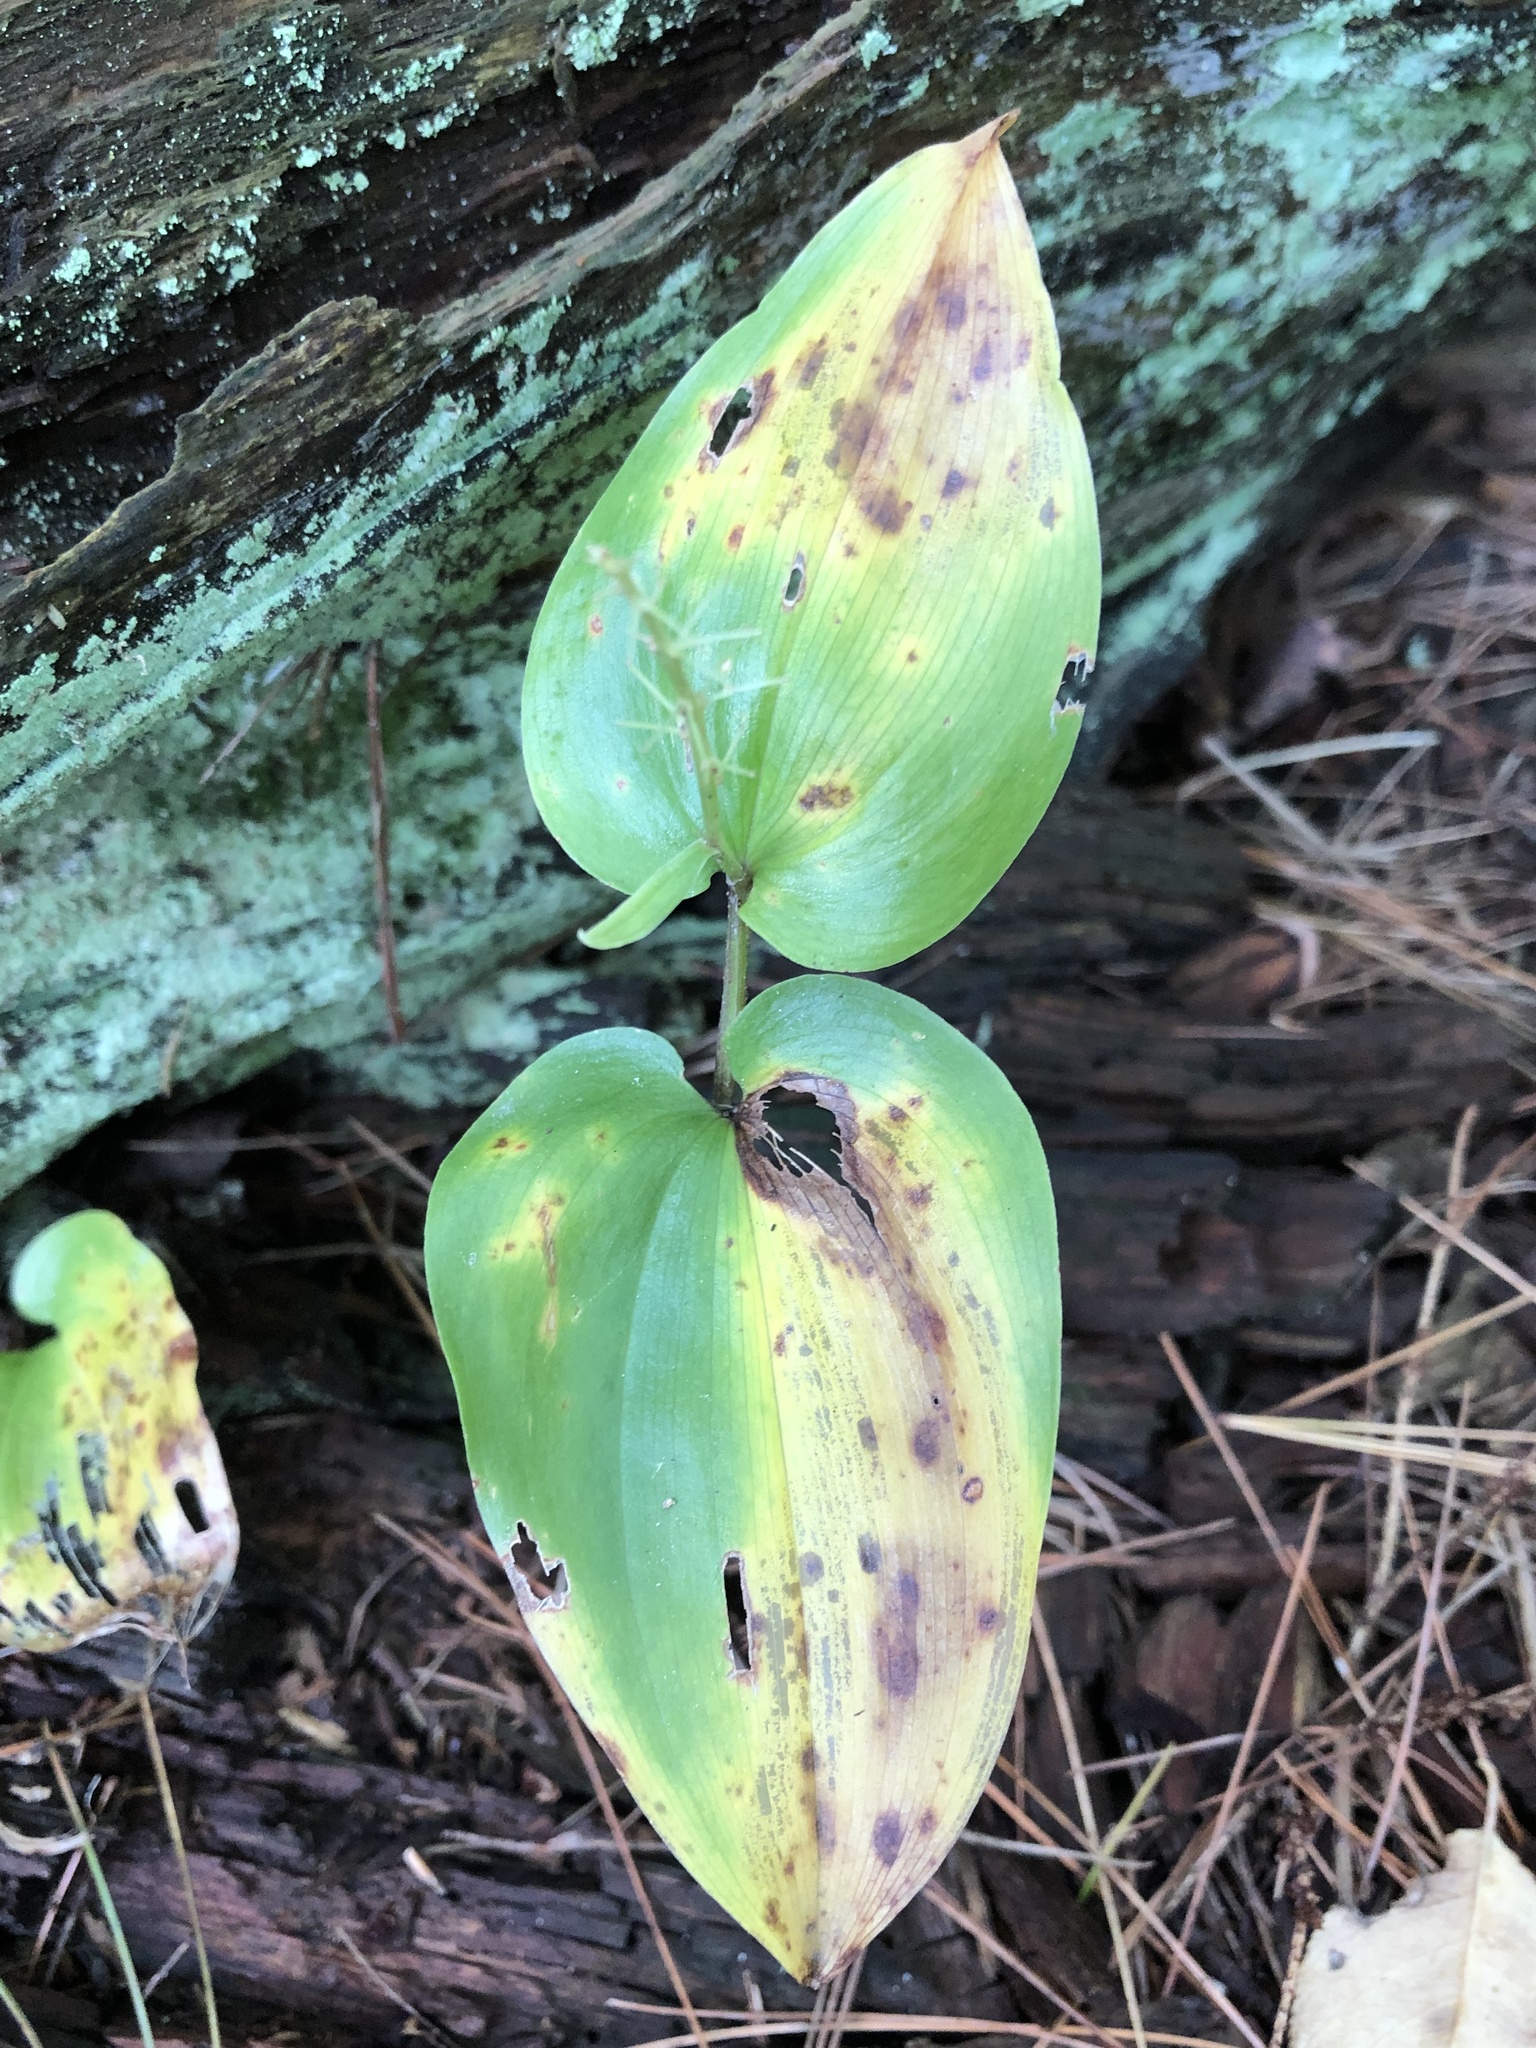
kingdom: Plantae
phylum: Tracheophyta
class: Liliopsida
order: Asparagales
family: Asparagaceae
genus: Maianthemum
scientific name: Maianthemum canadense
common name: False lily-of-the-valley
